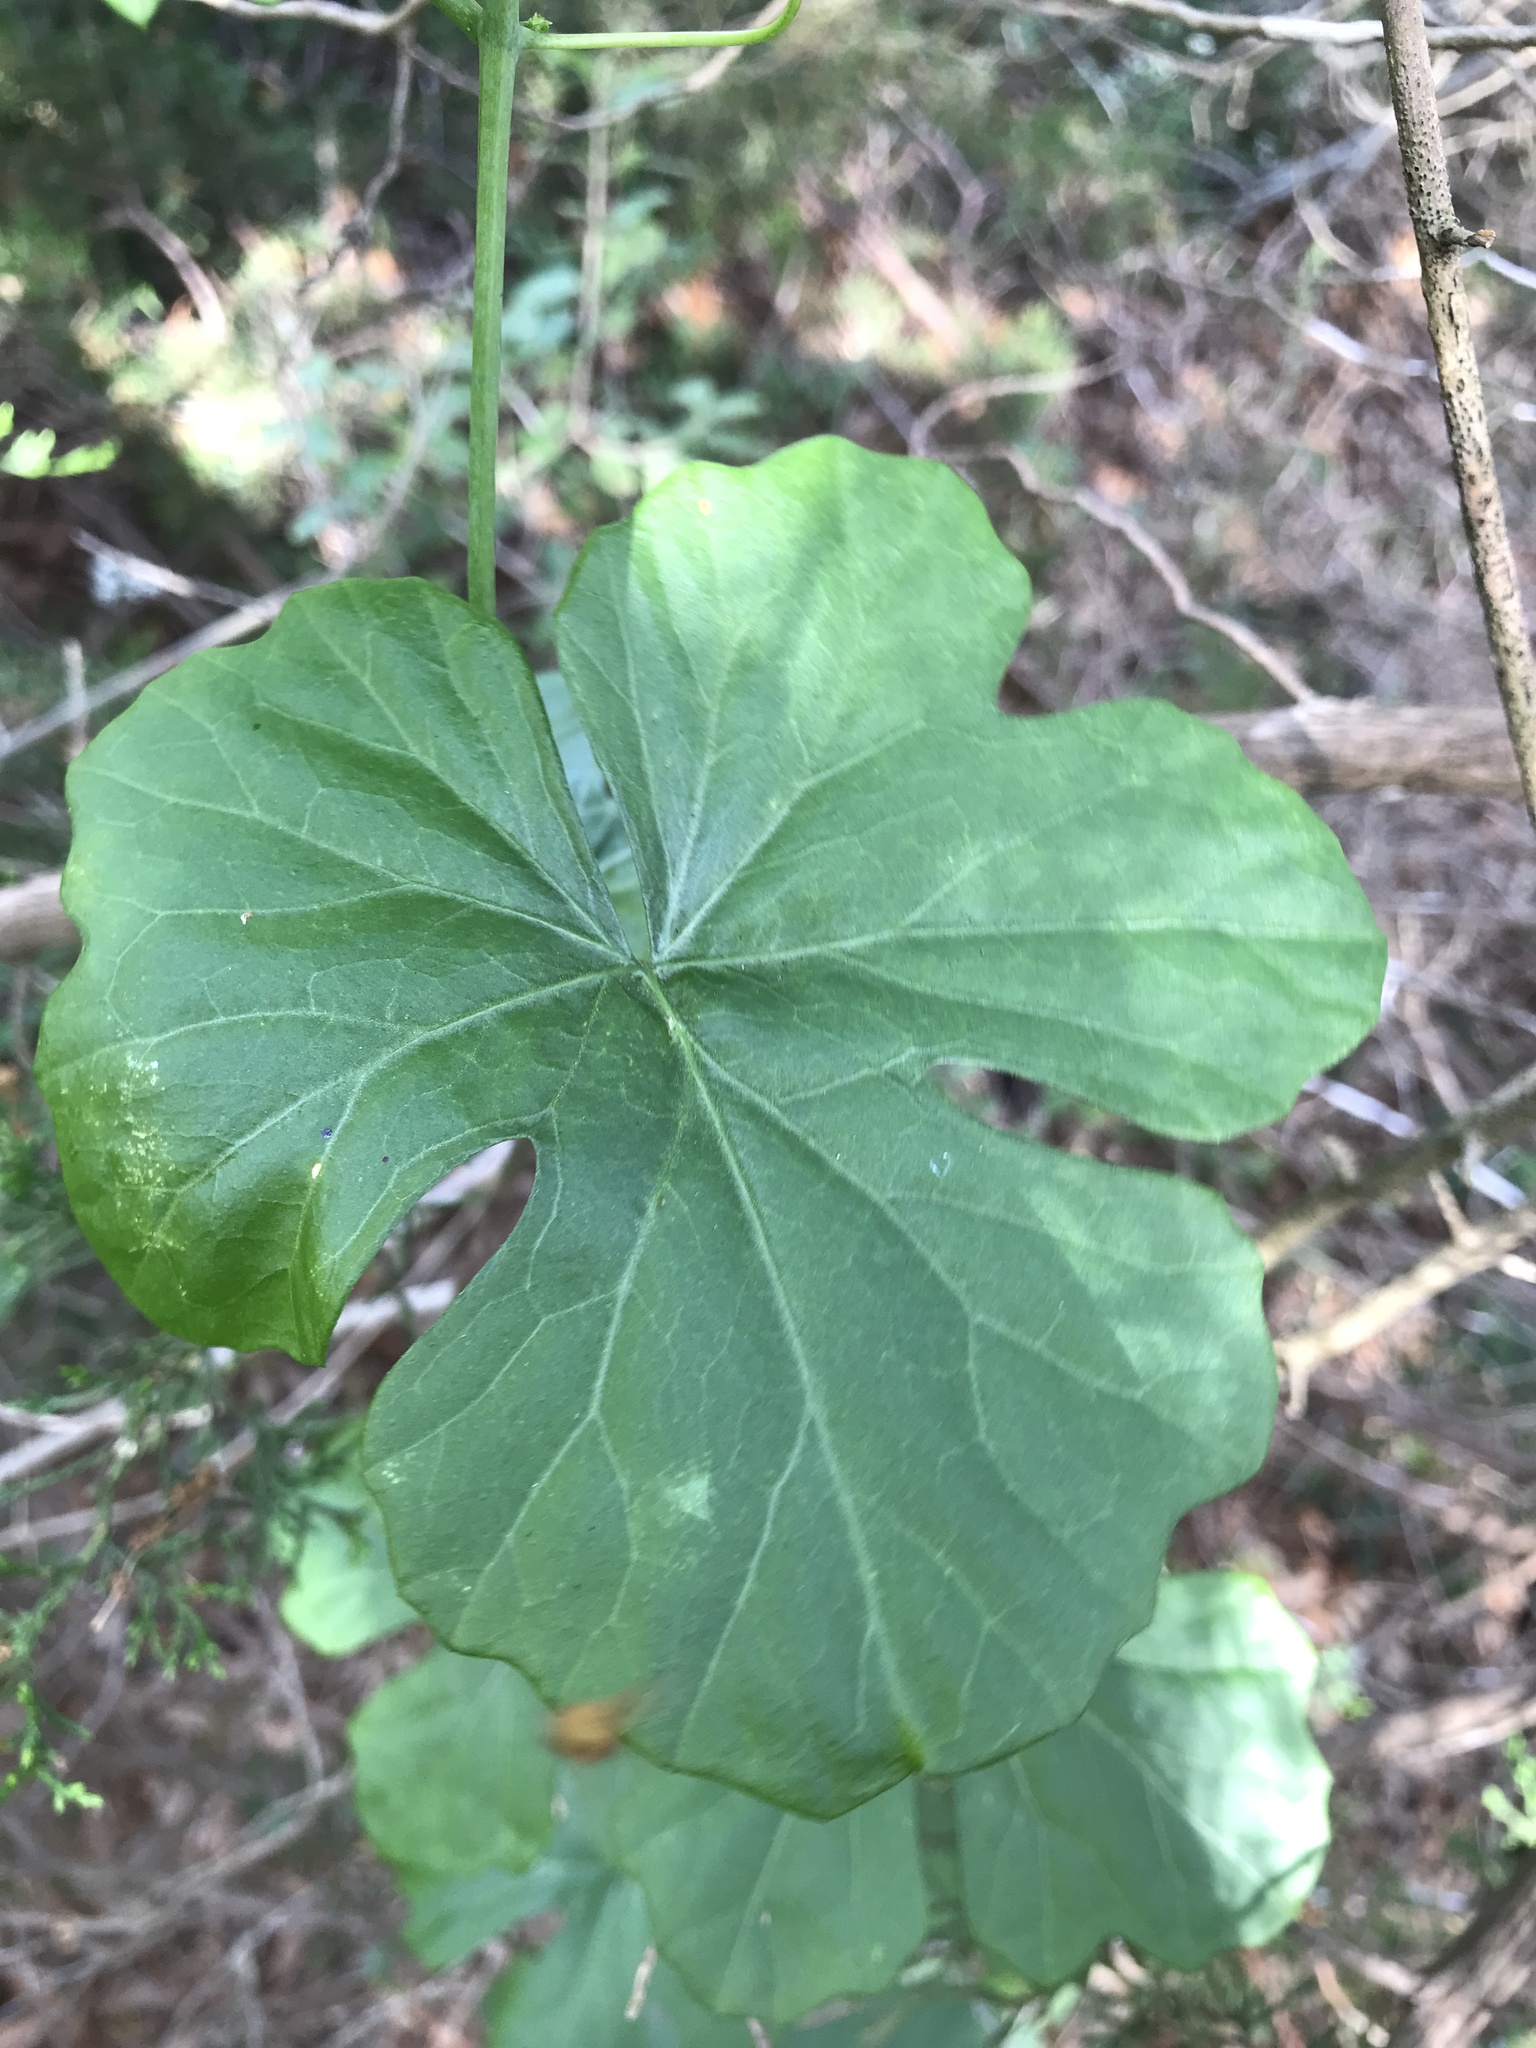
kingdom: Plantae
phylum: Tracheophyta
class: Magnoliopsida
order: Cucurbitales
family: Cucurbitaceae
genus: Ibervillea
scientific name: Ibervillea lindheimeri
